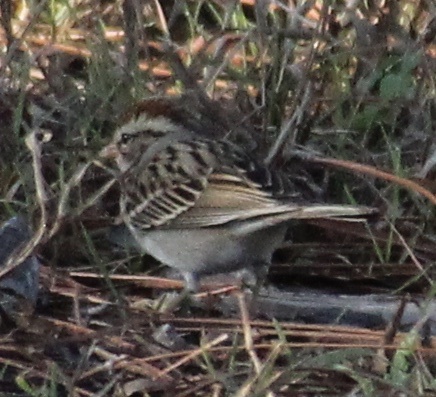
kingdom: Animalia
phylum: Chordata
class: Aves
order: Passeriformes
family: Passerellidae
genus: Spizella
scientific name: Spizella passerina
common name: Chipping sparrow
